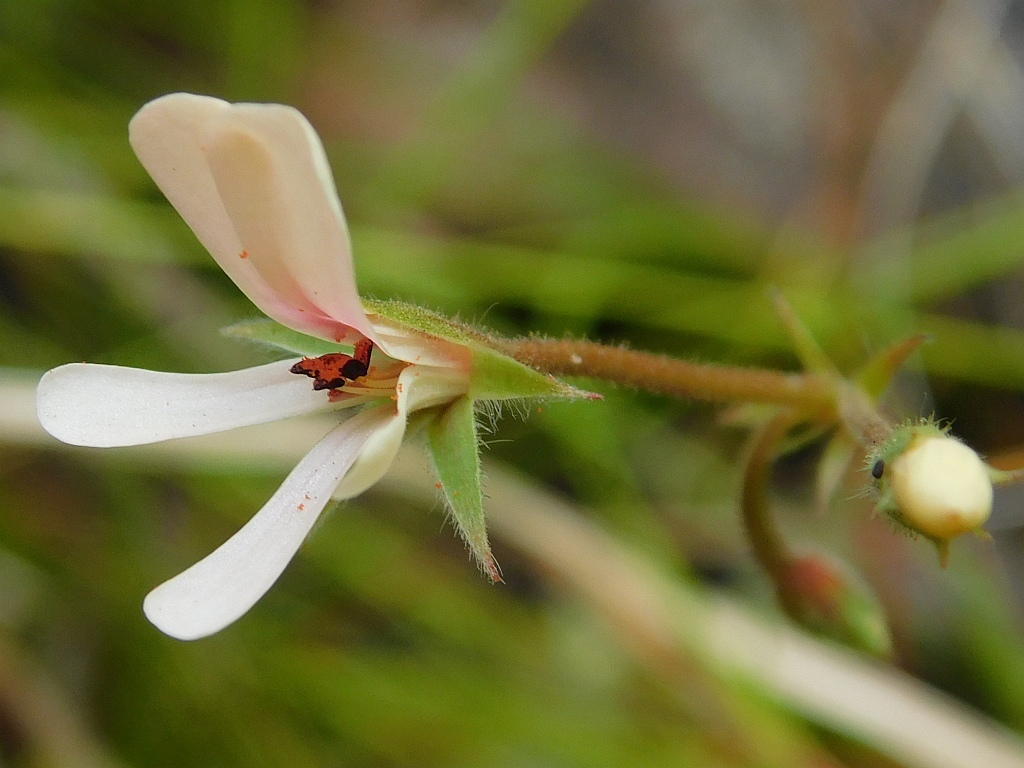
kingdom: Plantae
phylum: Tracheophyta
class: Magnoliopsida
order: Geraniales
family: Geraniaceae
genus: Pelargonium
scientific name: Pelargonium elongatum
